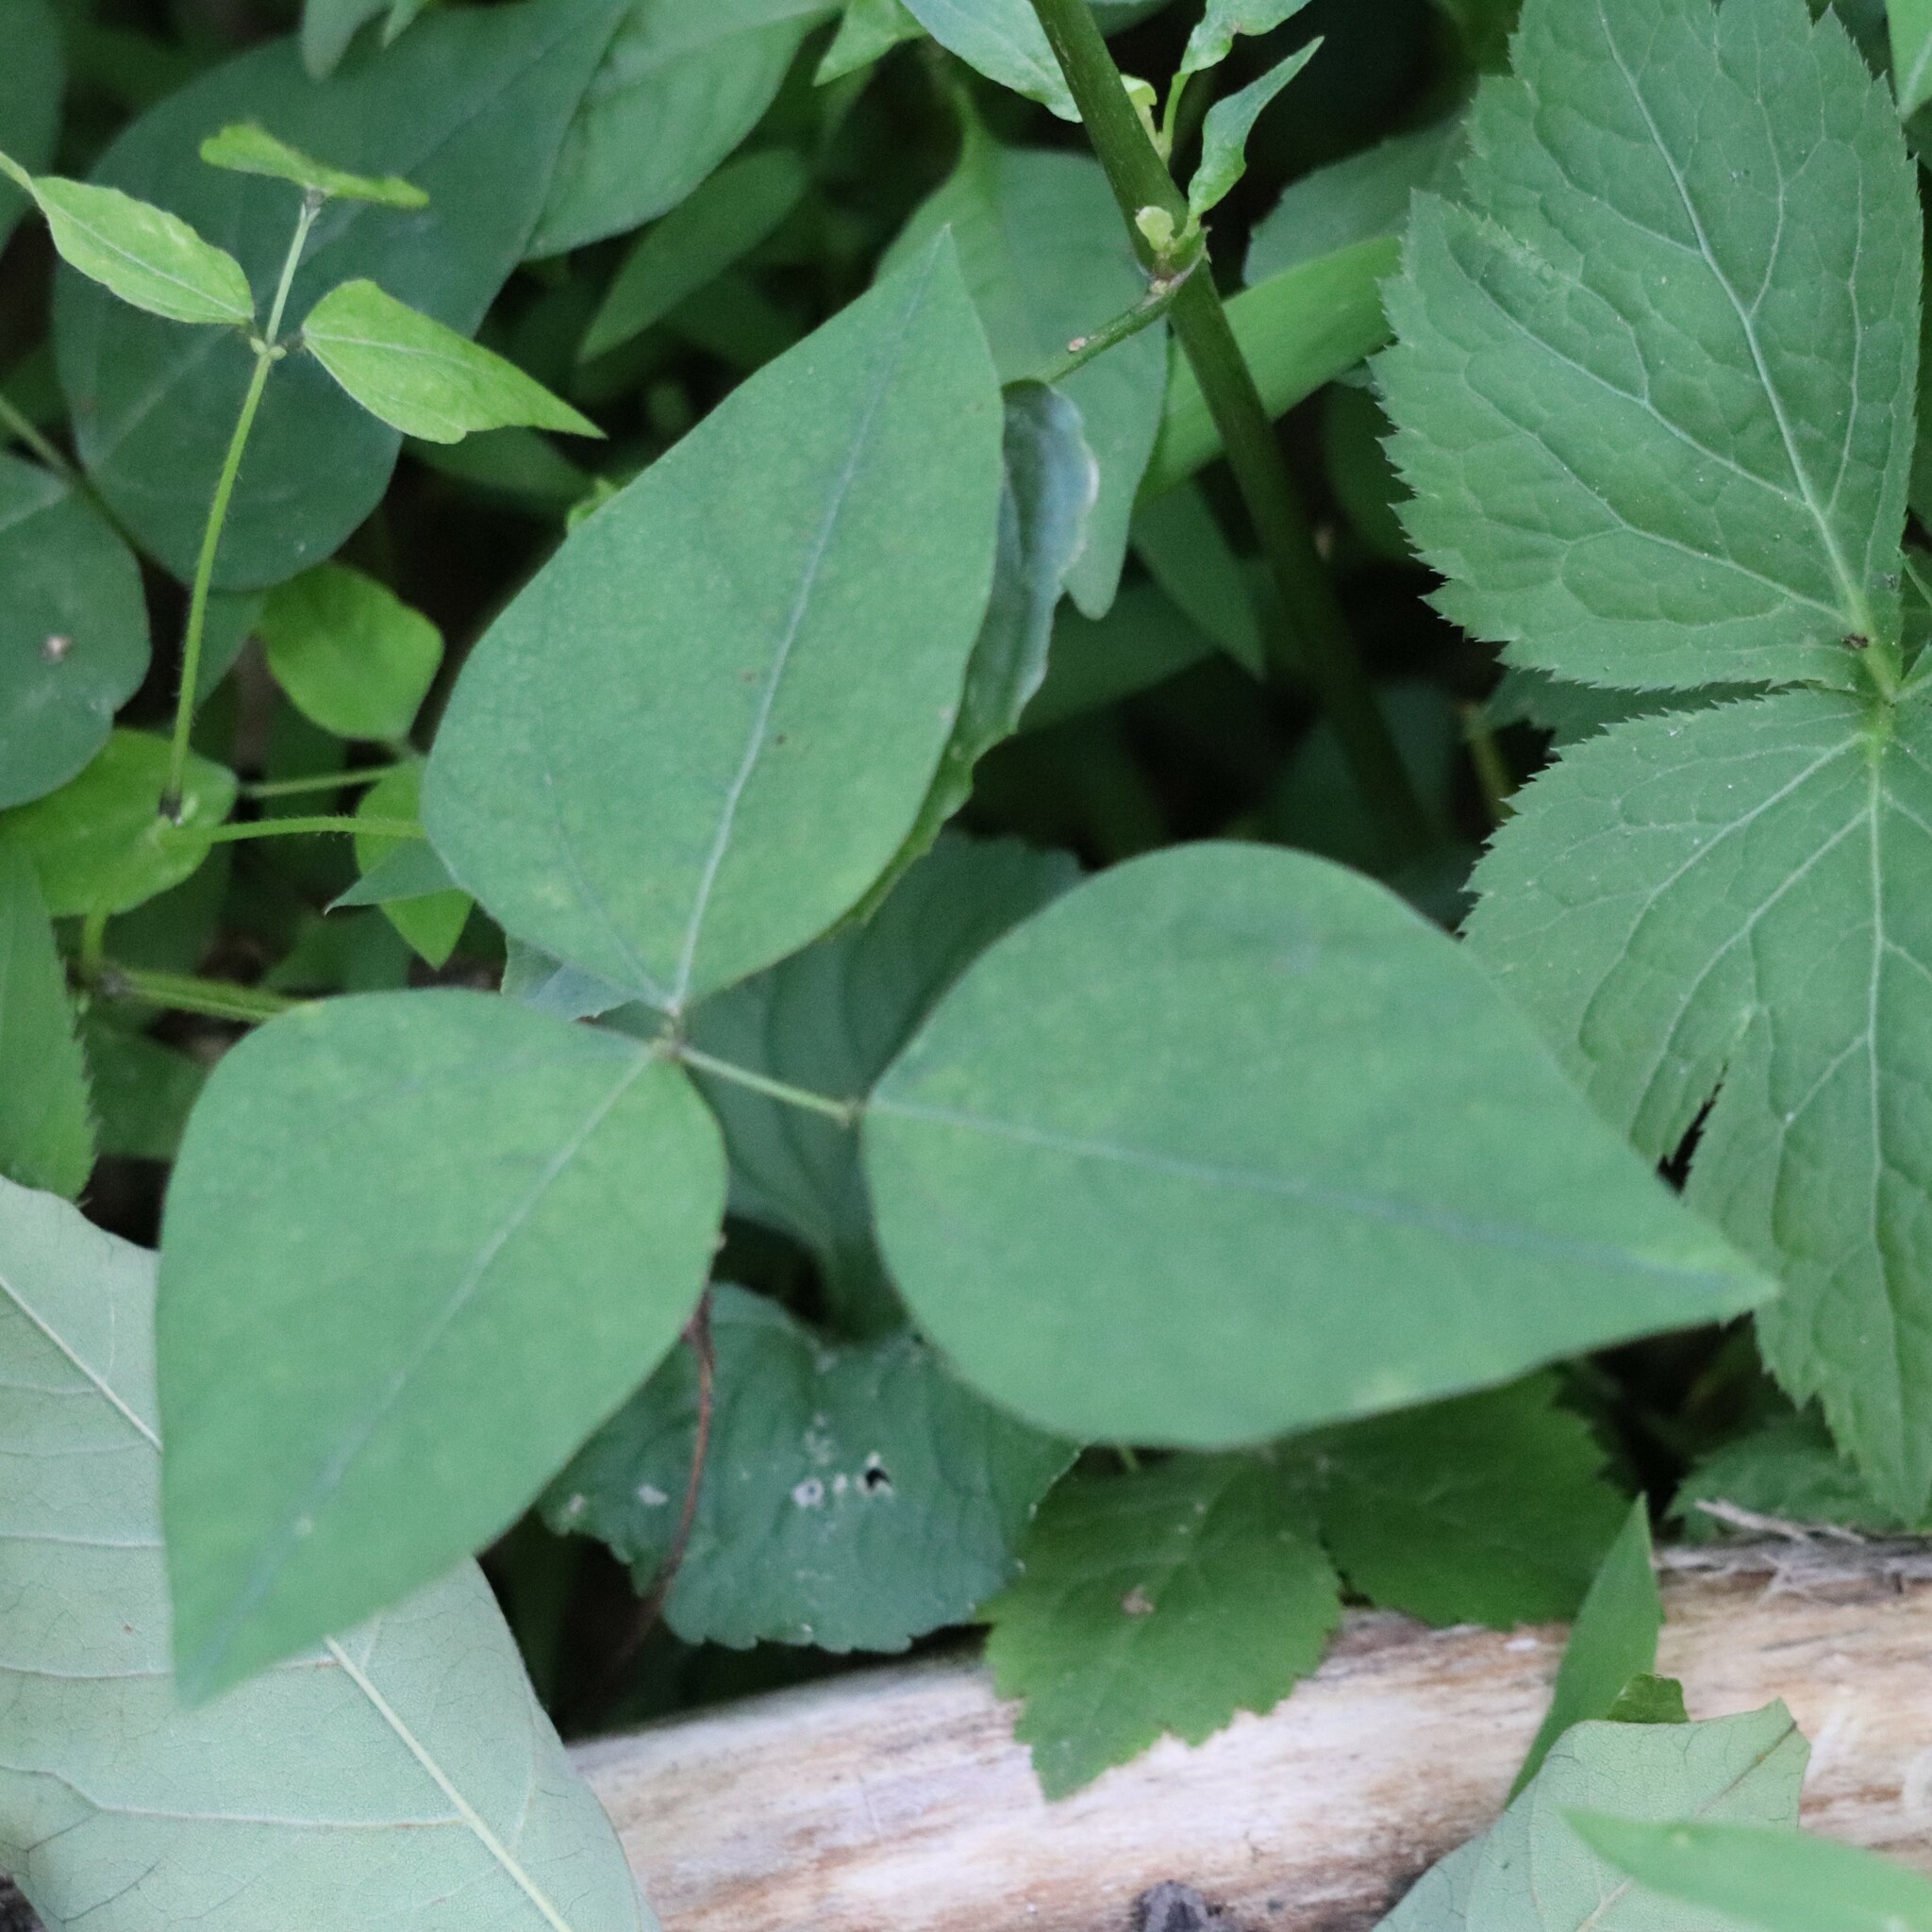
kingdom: Plantae
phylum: Tracheophyta
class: Magnoliopsida
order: Fabales
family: Fabaceae
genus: Amphicarpaea
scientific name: Amphicarpaea bracteata
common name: American hog peanut
